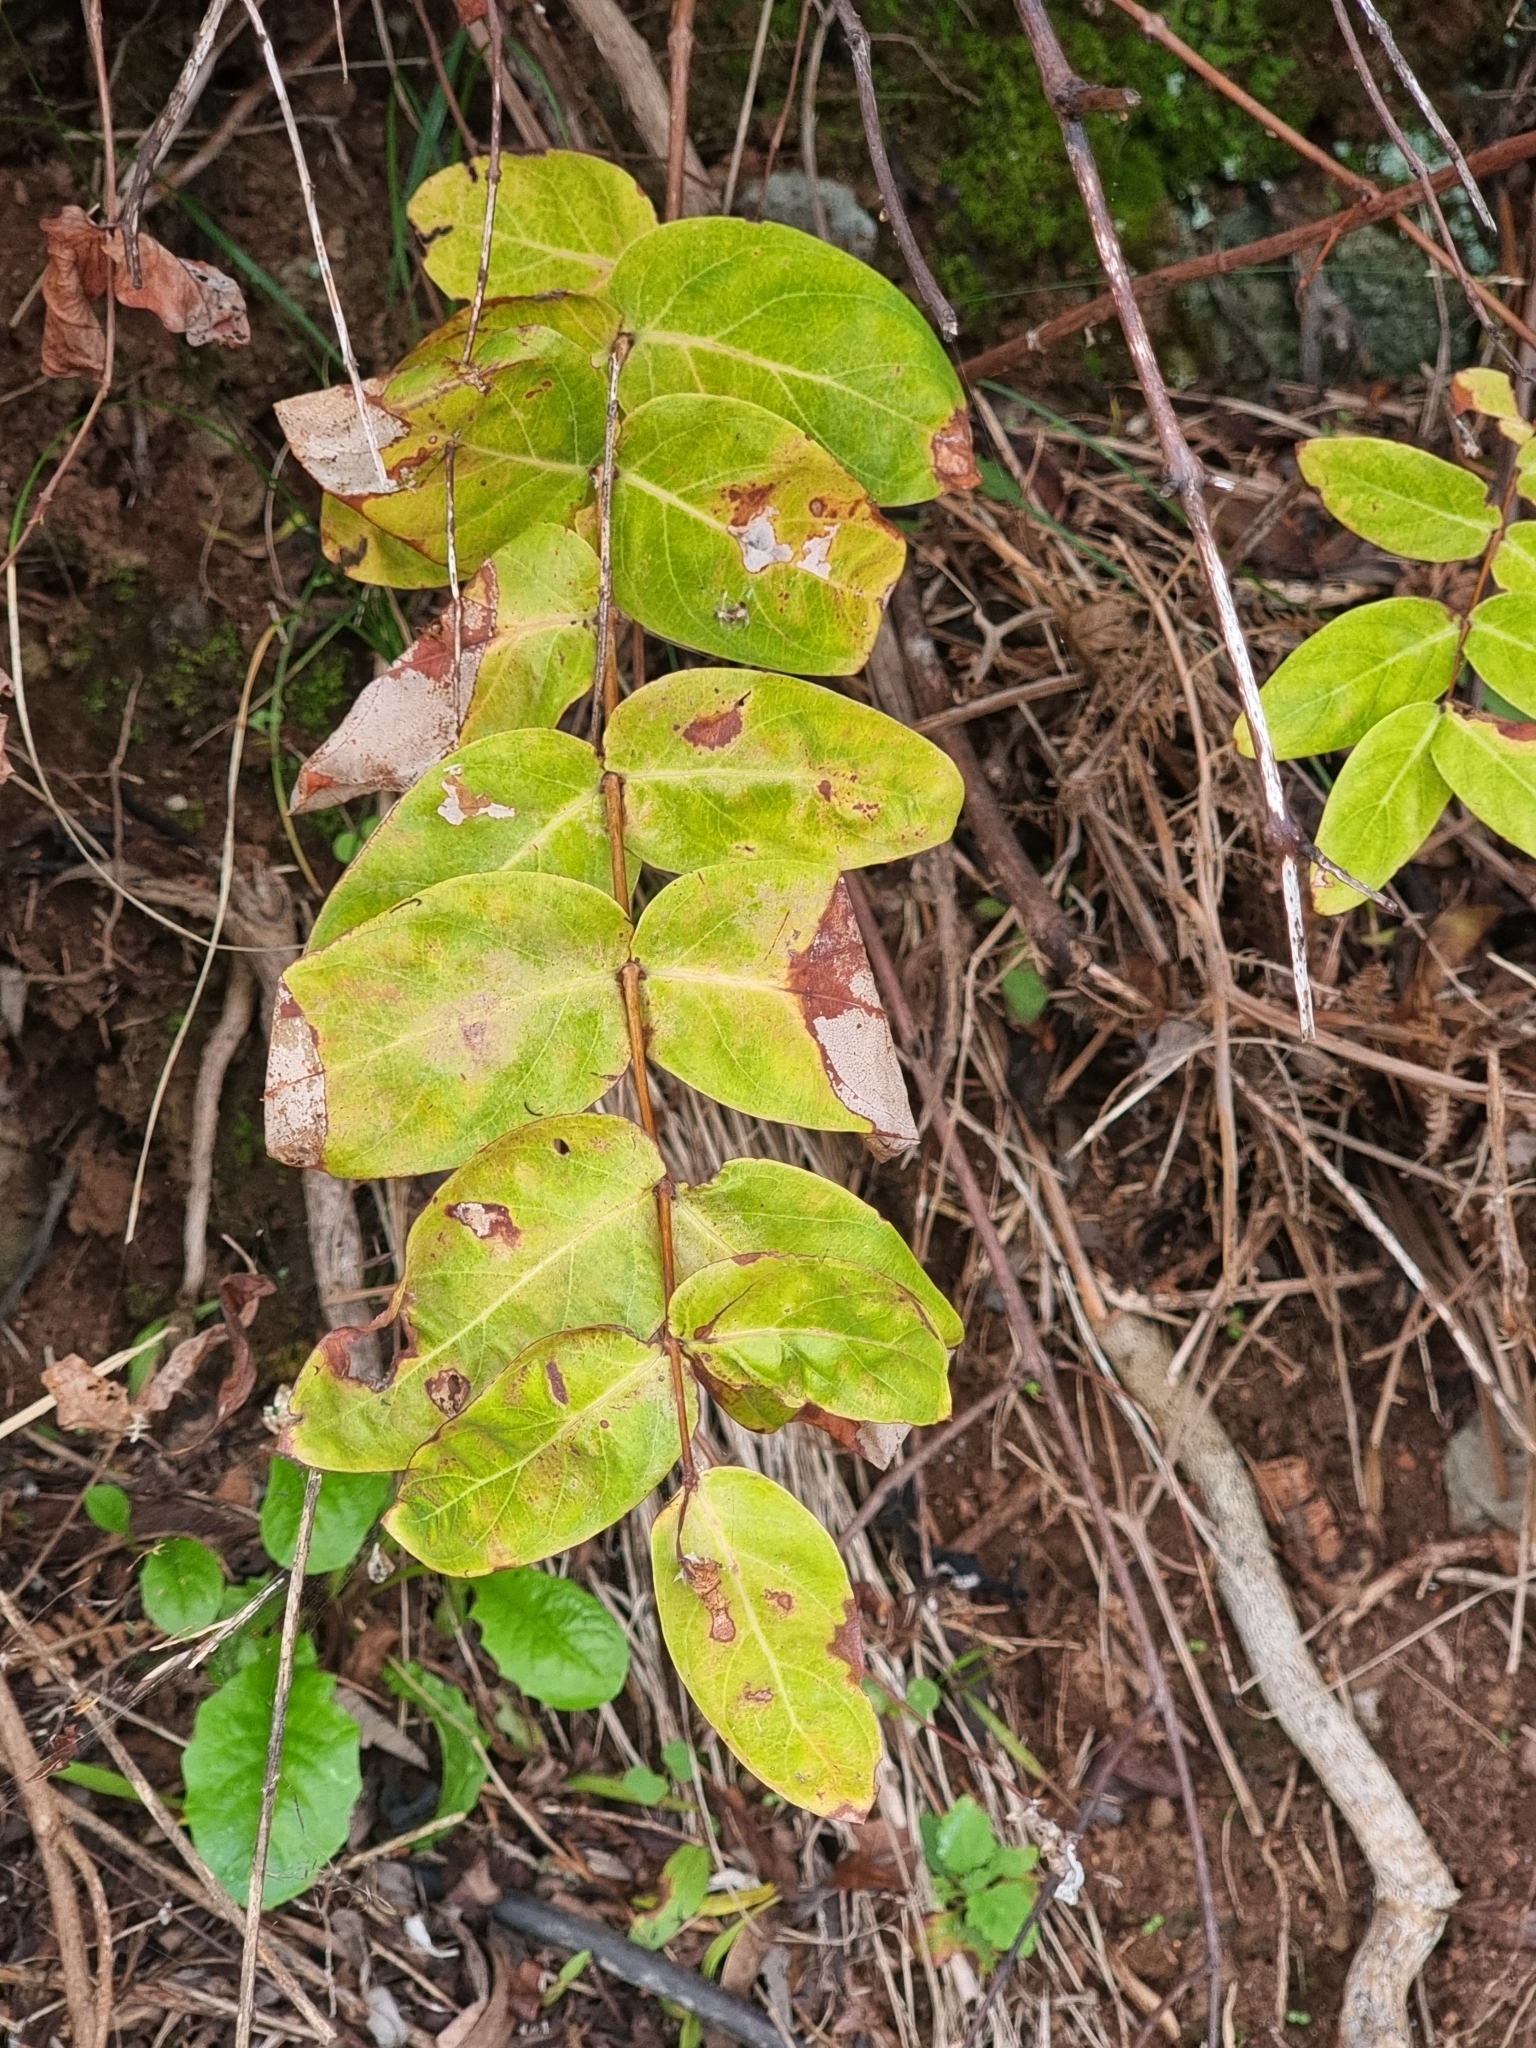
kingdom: Plantae
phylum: Tracheophyta
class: Magnoliopsida
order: Malpighiales
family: Hypericaceae
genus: Hypericum
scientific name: Hypericum grandifolium
